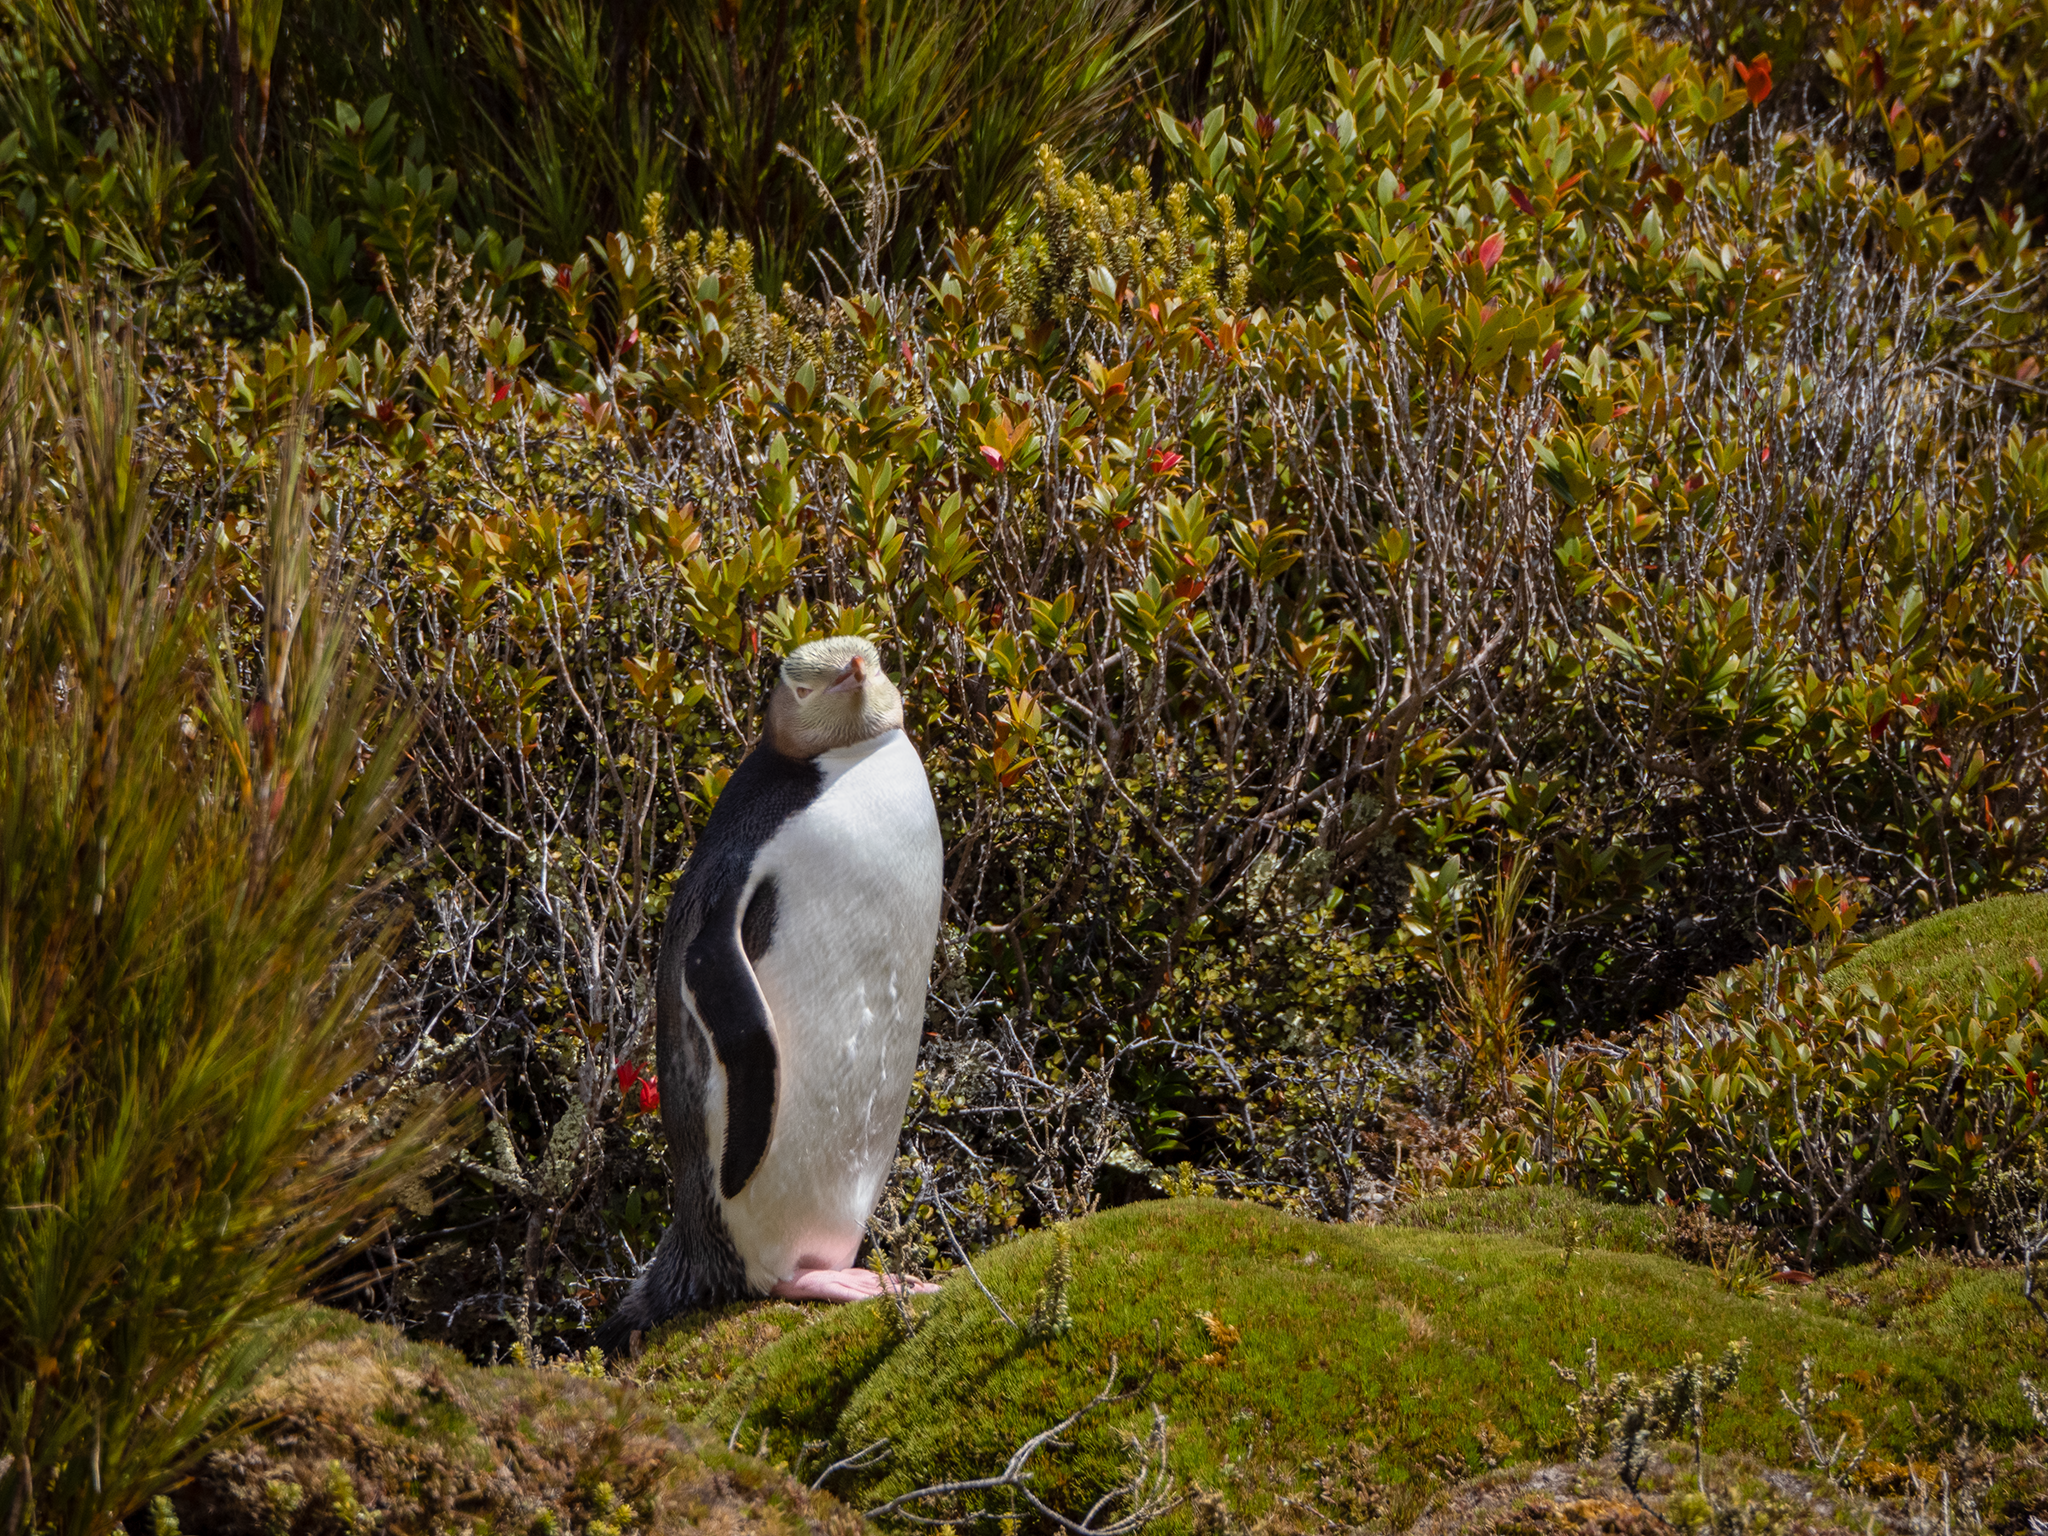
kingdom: Animalia
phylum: Chordata
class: Aves
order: Sphenisciformes
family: Spheniscidae
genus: Megadyptes
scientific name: Megadyptes antipodes
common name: Yellow-eyed penguin
